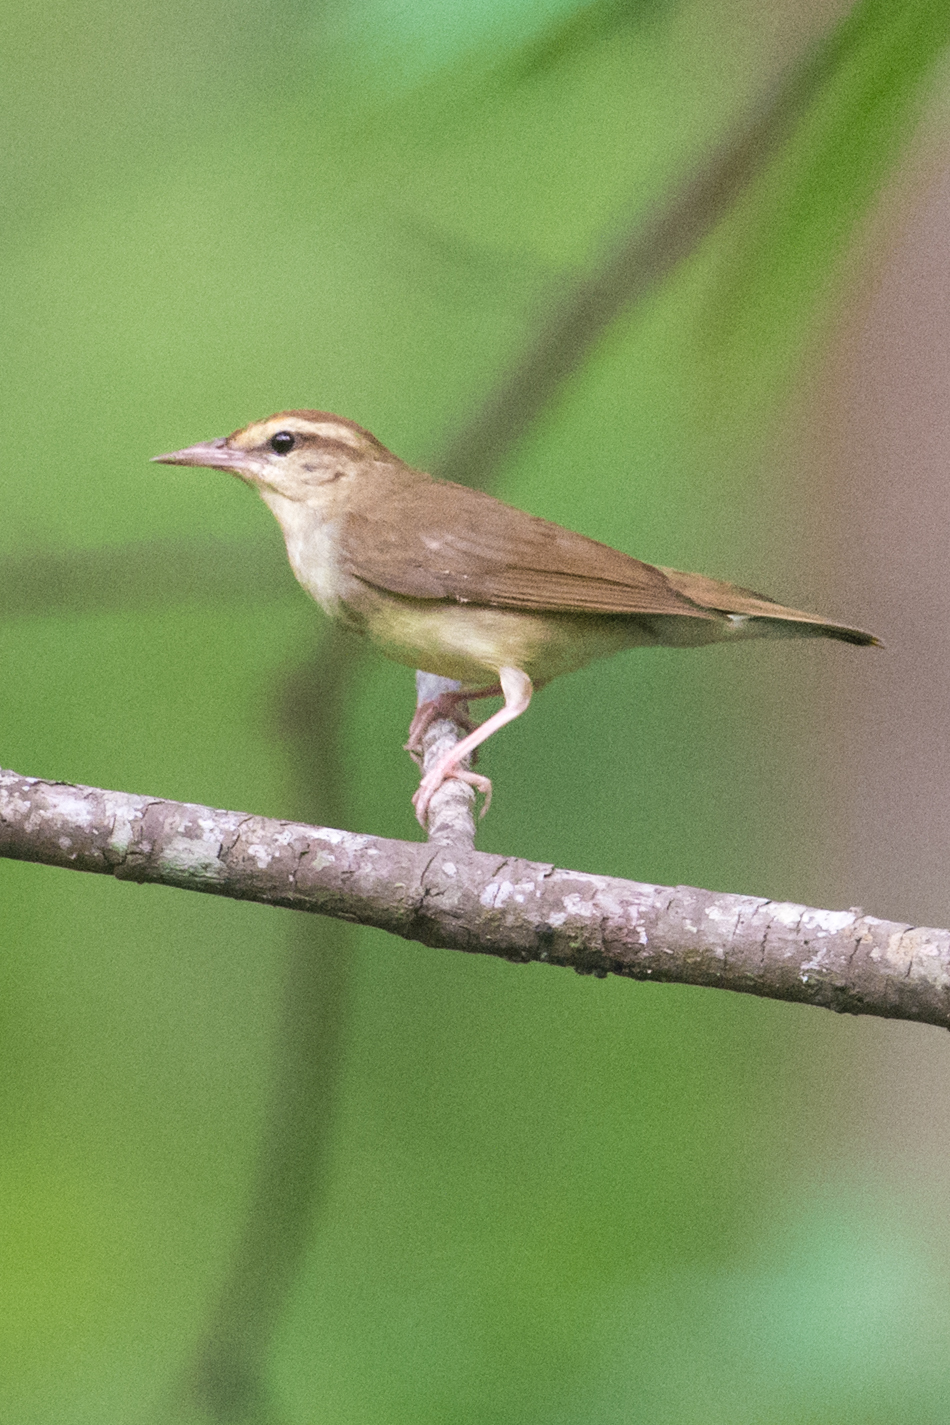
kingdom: Animalia
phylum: Chordata
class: Aves
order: Passeriformes
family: Parulidae
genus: Limnothlypis
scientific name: Limnothlypis swainsonii
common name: Swainson's warbler
